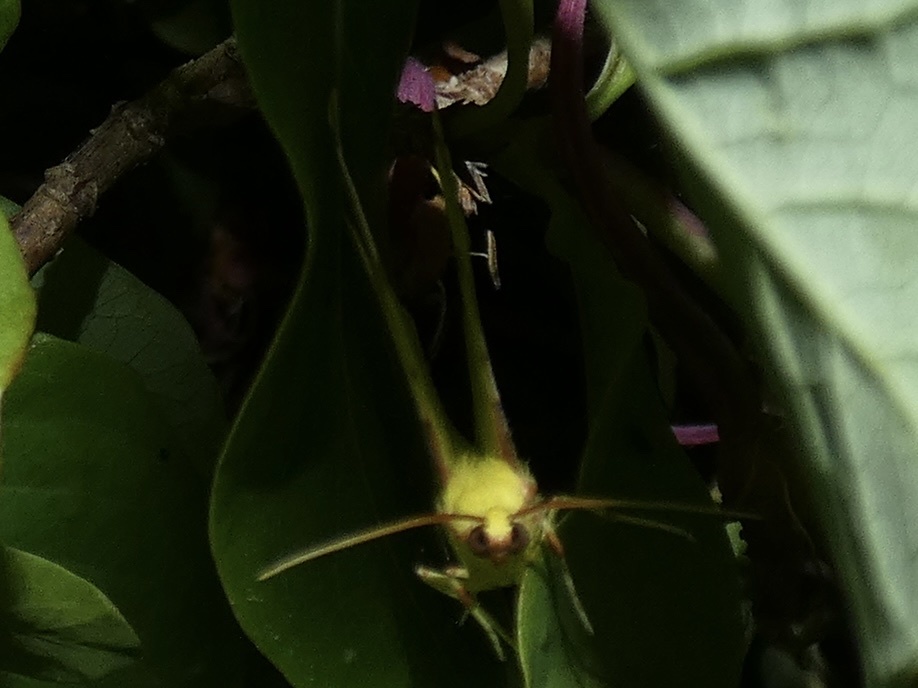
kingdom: Animalia
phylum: Arthropoda
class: Insecta
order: Lepidoptera
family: Geometridae
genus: Opisthograptis
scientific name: Opisthograptis luteolata
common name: Brimstone moth
